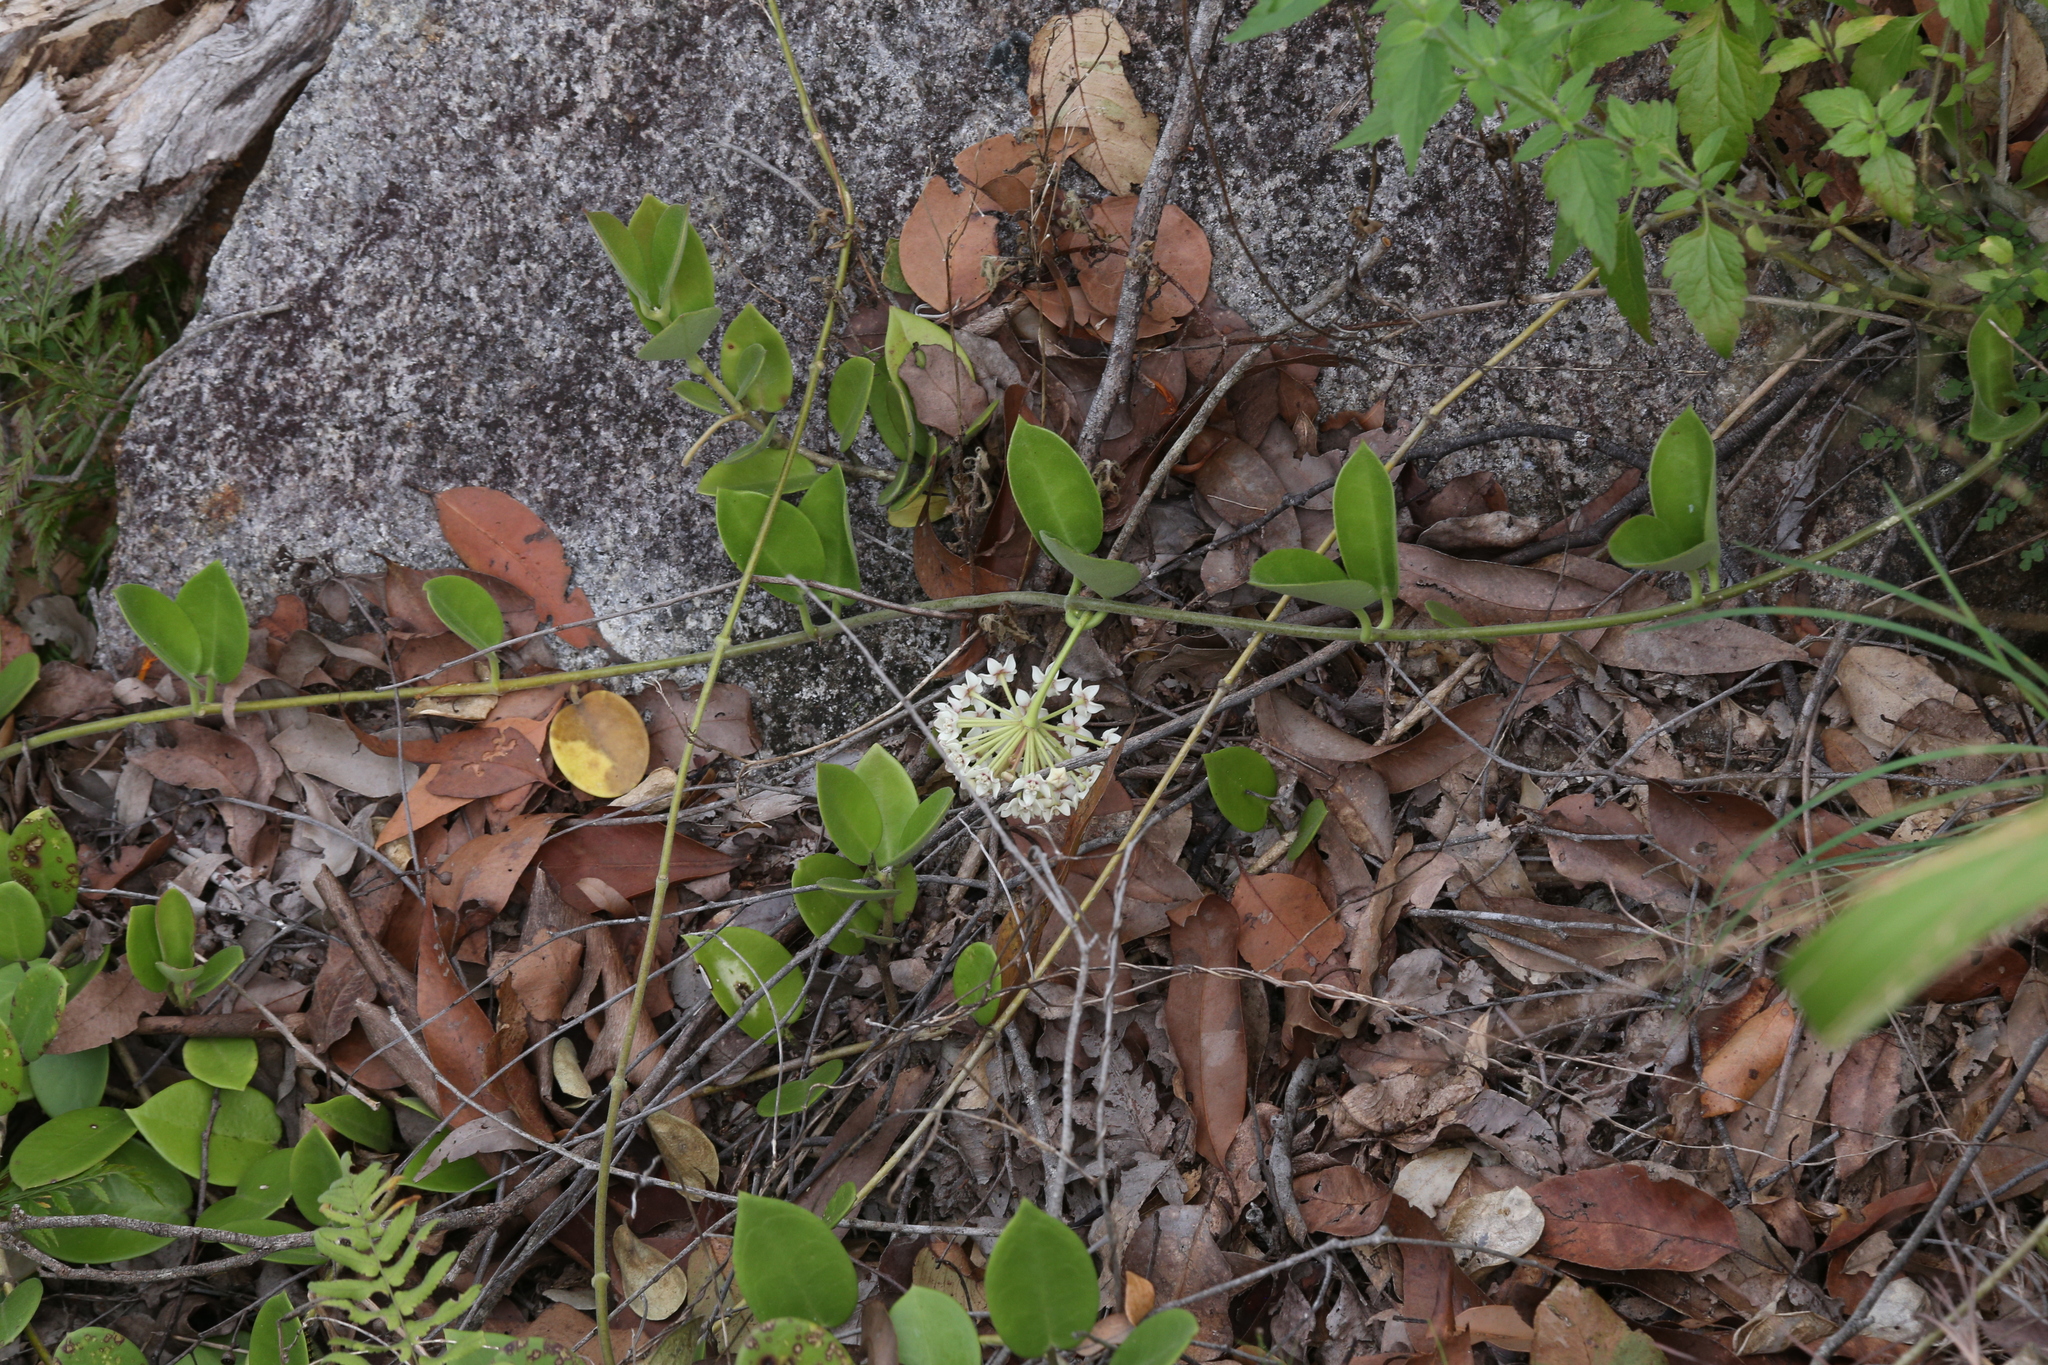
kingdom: Plantae
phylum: Tracheophyta
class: Magnoliopsida
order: Gentianales
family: Apocynaceae
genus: Hoya
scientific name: Hoya australis
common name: Wax flower
